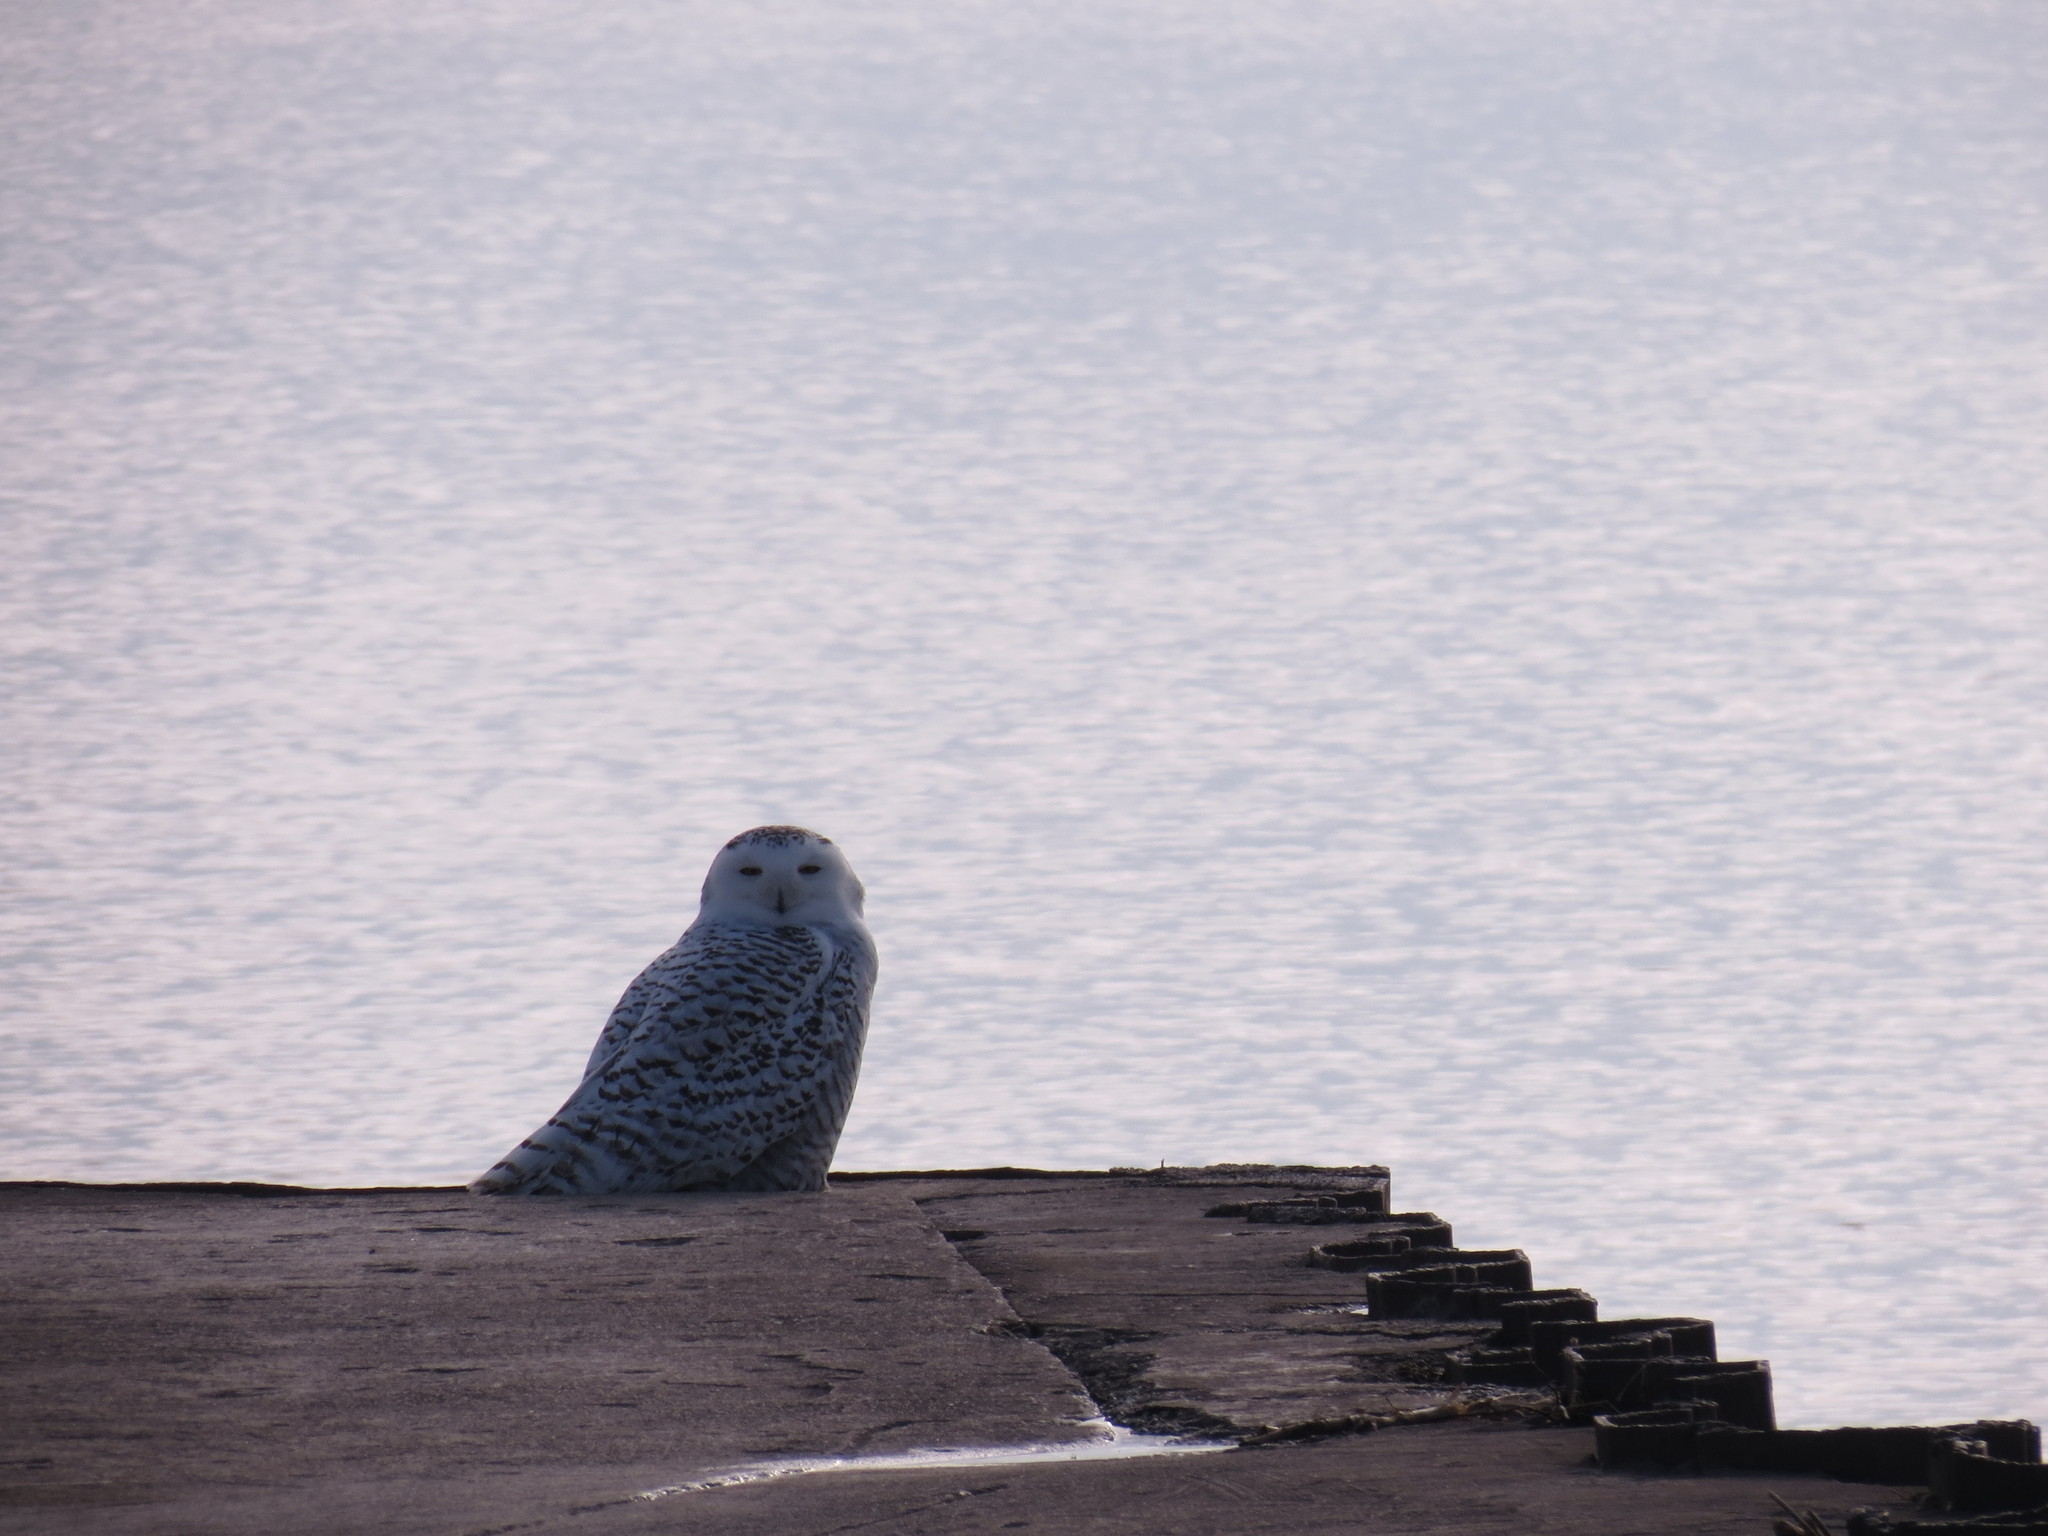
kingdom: Animalia
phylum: Chordata
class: Aves
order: Strigiformes
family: Strigidae
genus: Bubo
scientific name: Bubo scandiacus
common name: Snowy owl
